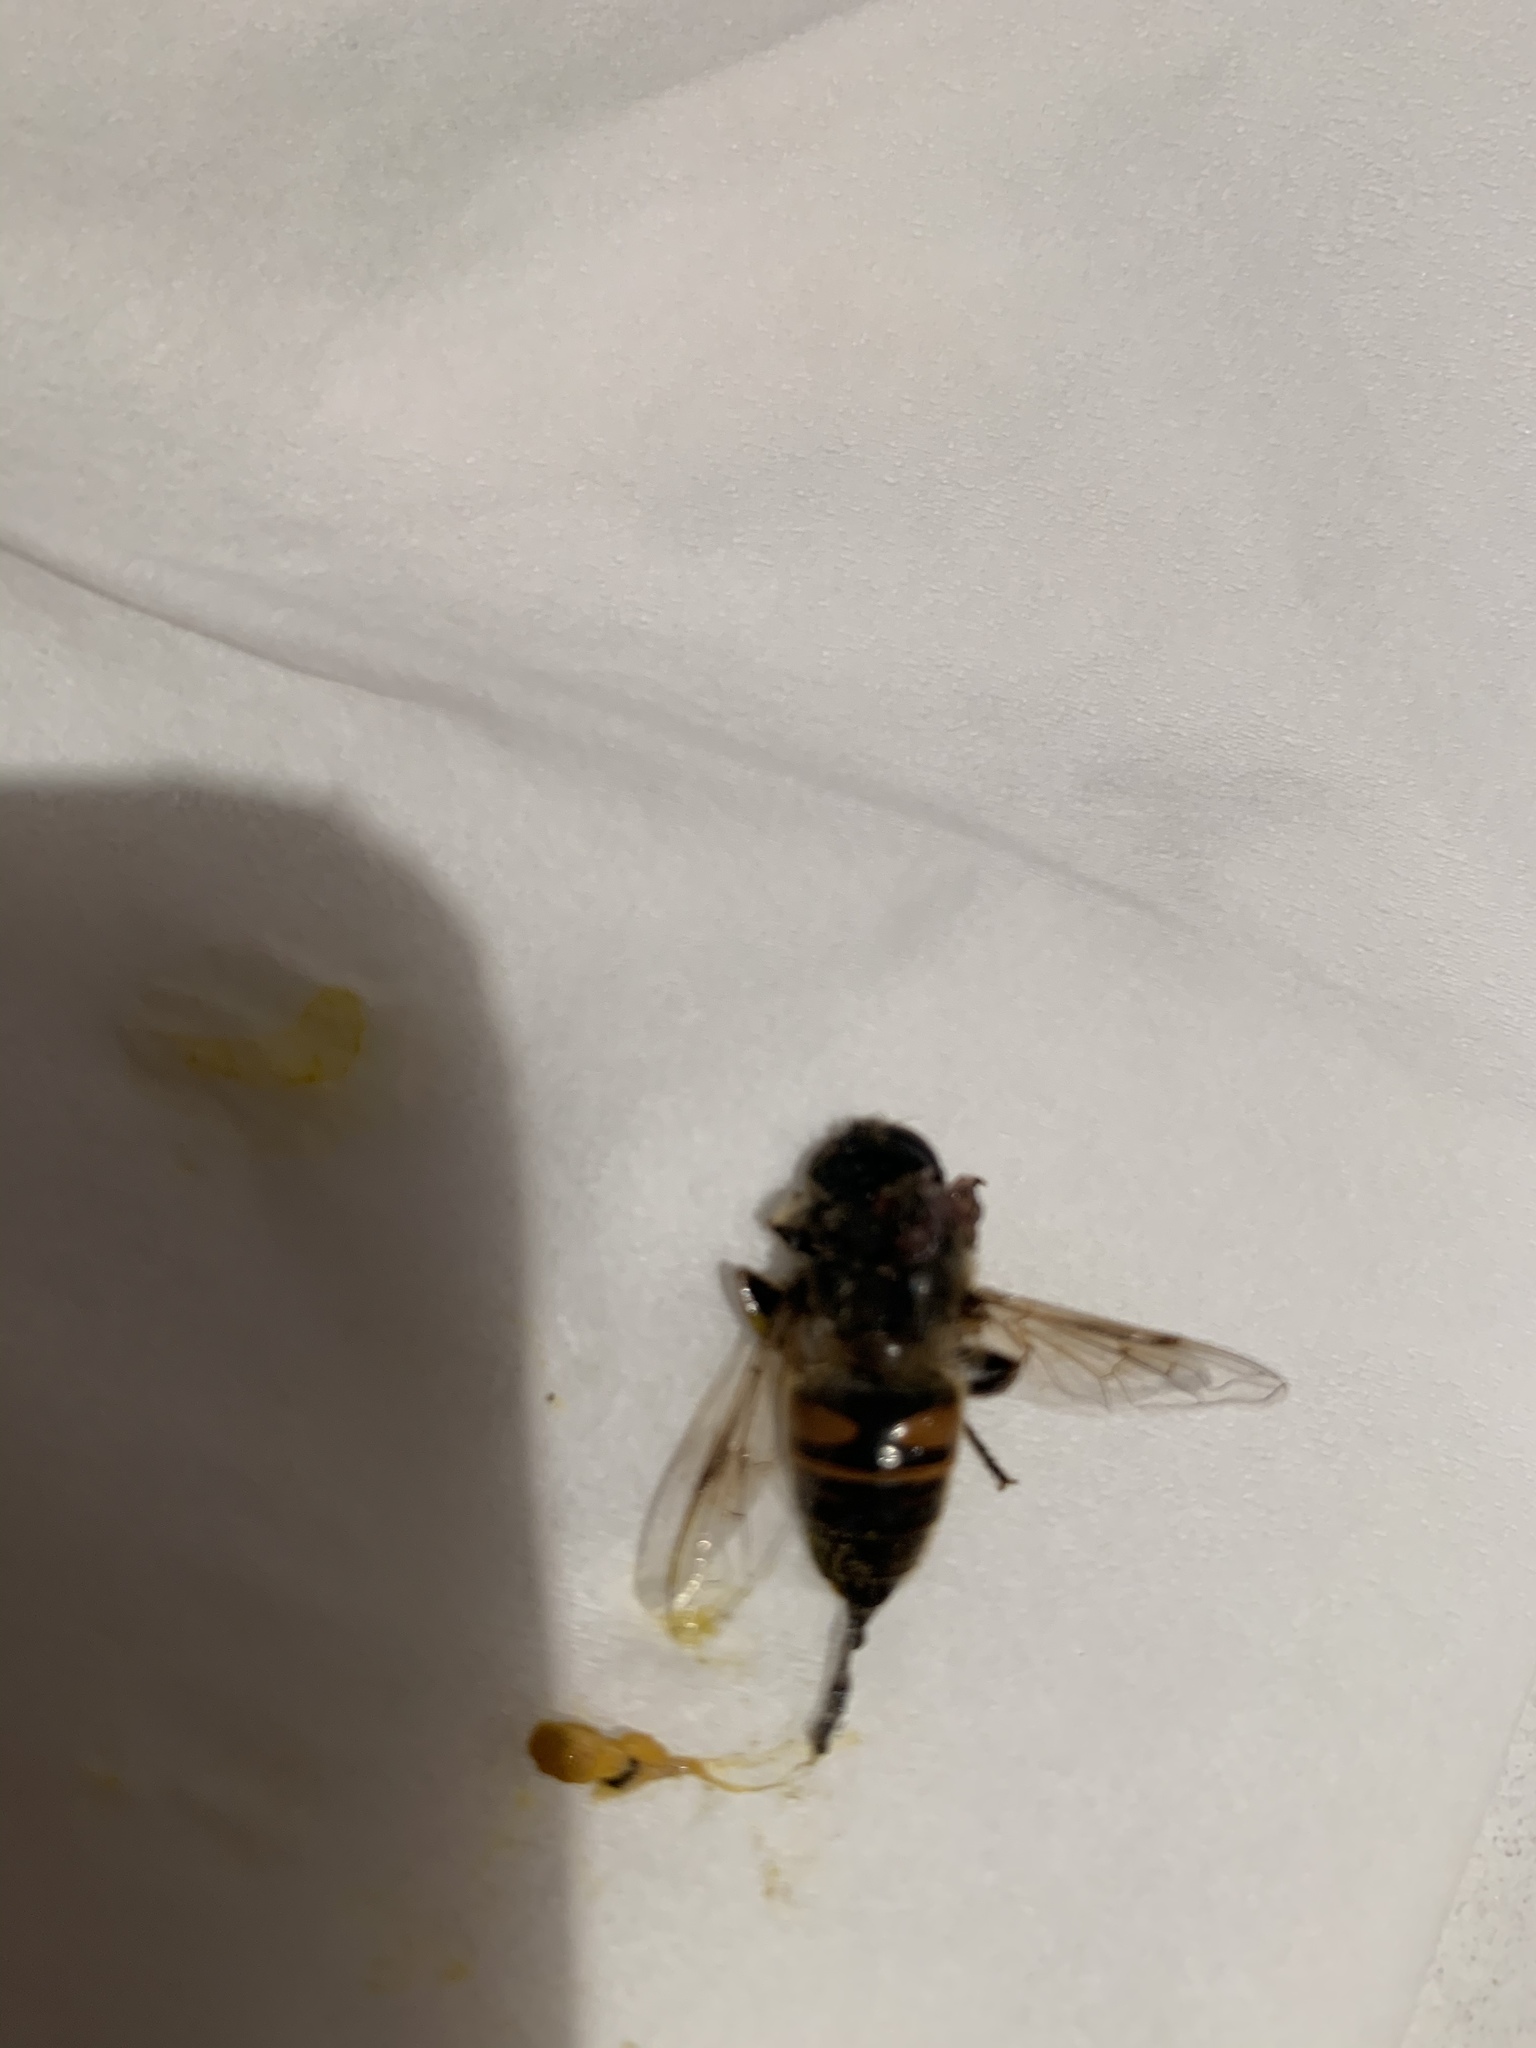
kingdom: Animalia
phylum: Arthropoda
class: Insecta
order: Diptera
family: Syrphidae
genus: Eristalis
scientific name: Eristalis tenax
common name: Drone fly
